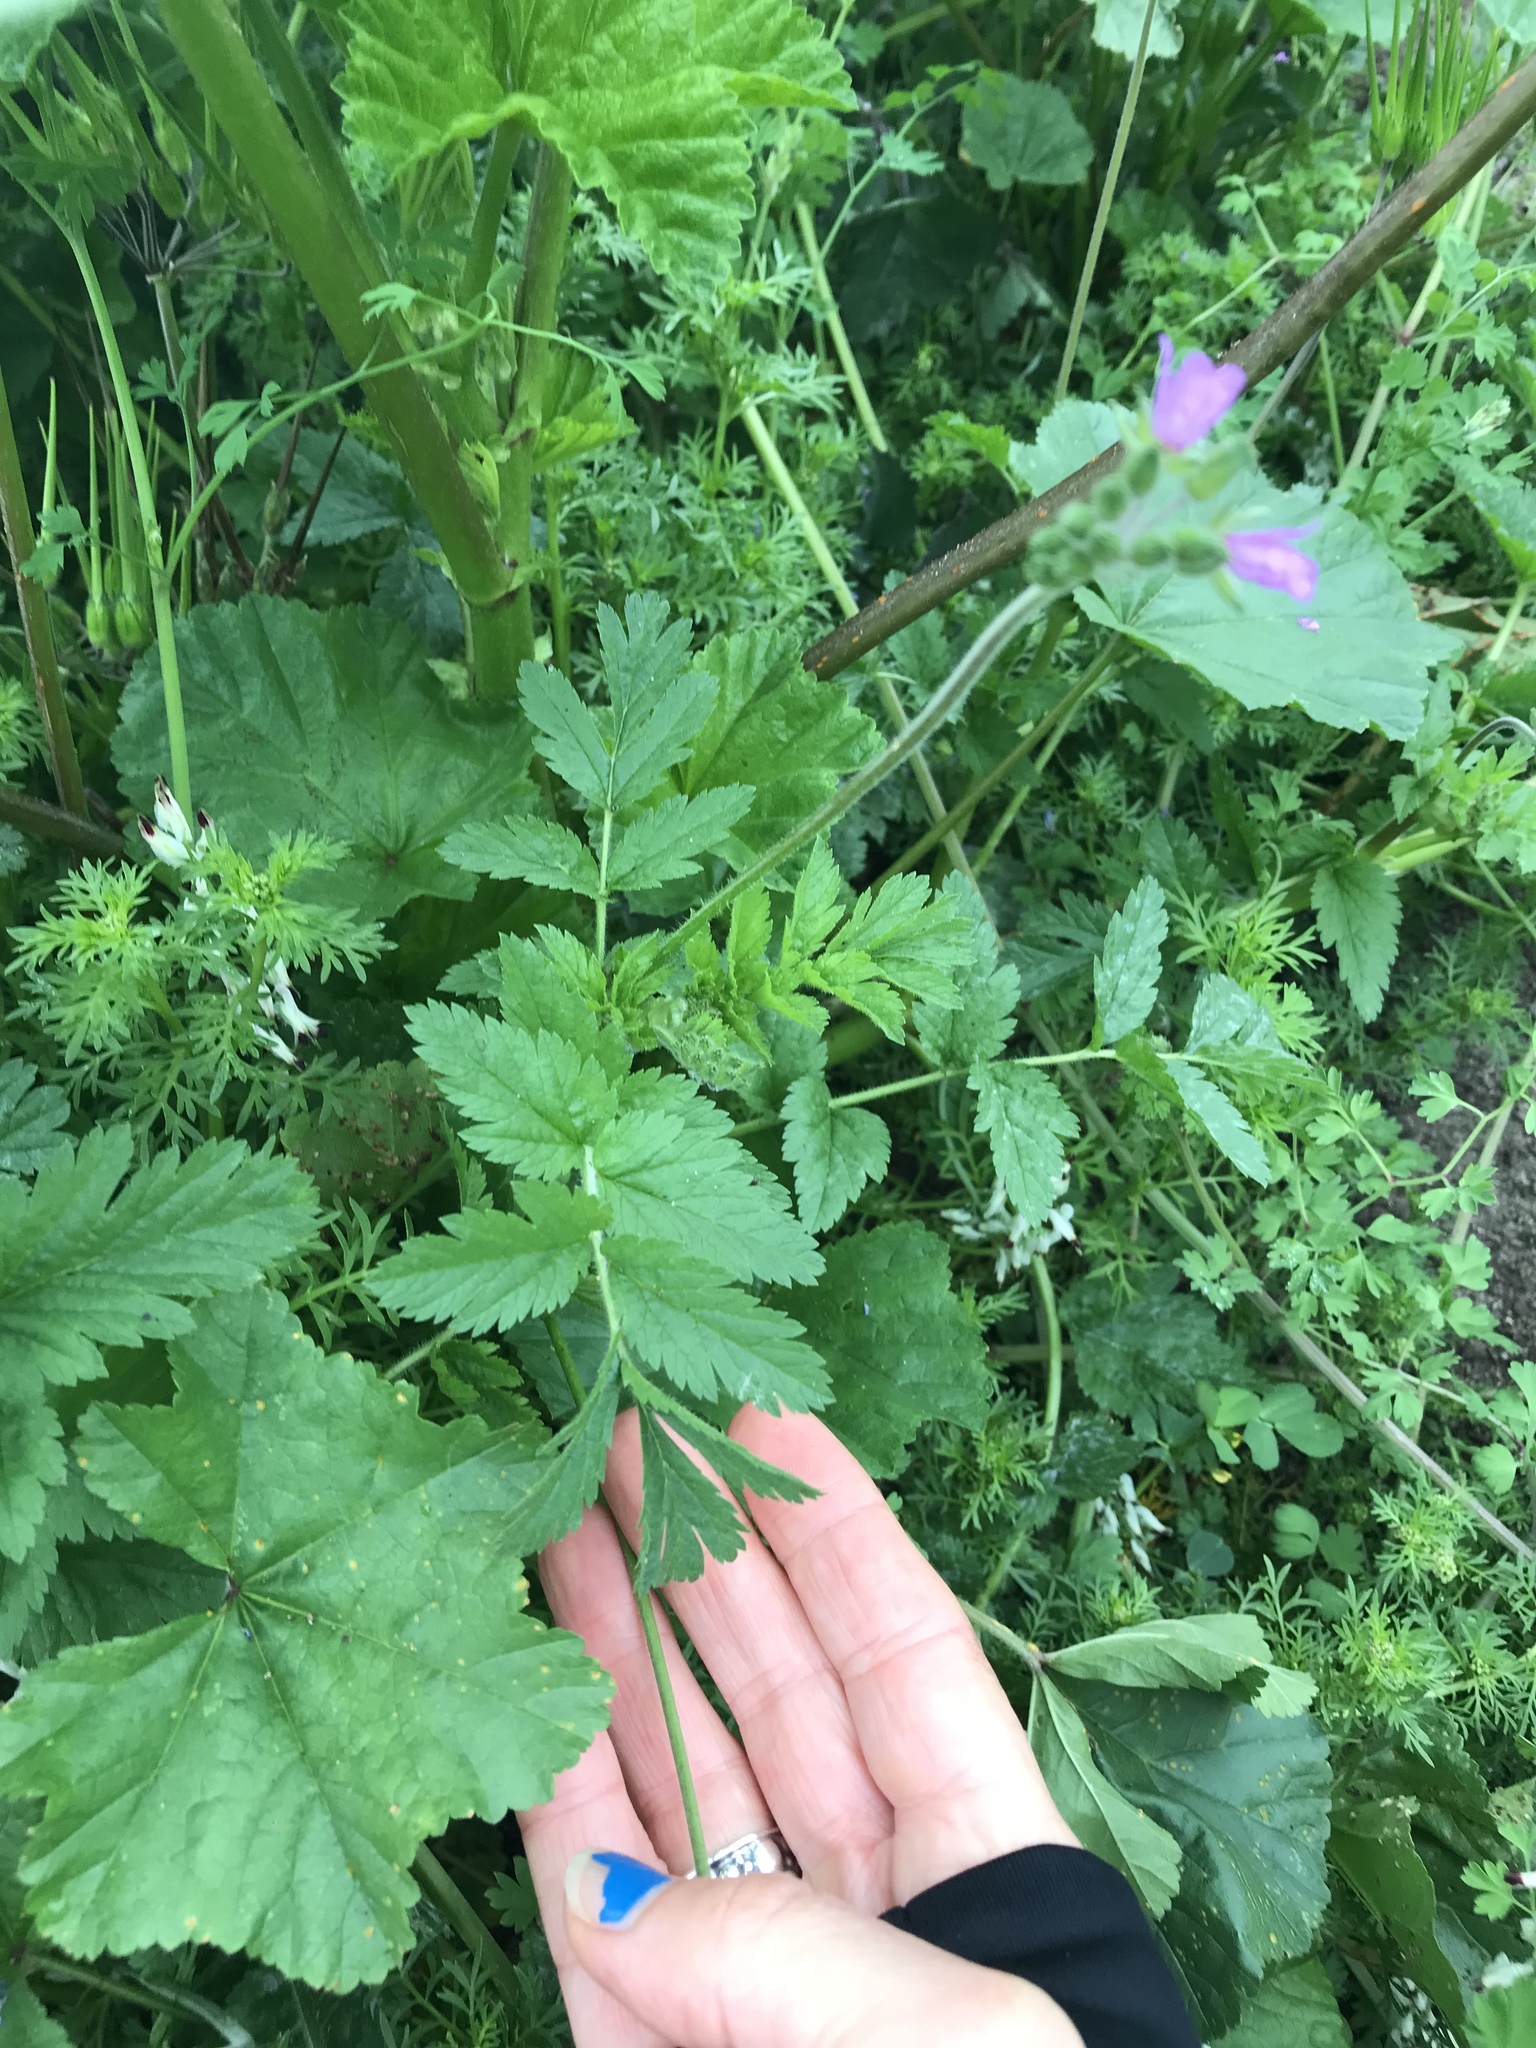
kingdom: Plantae
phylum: Tracheophyta
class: Magnoliopsida
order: Geraniales
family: Geraniaceae
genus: Erodium
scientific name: Erodium moschatum
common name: Musk stork's-bill
